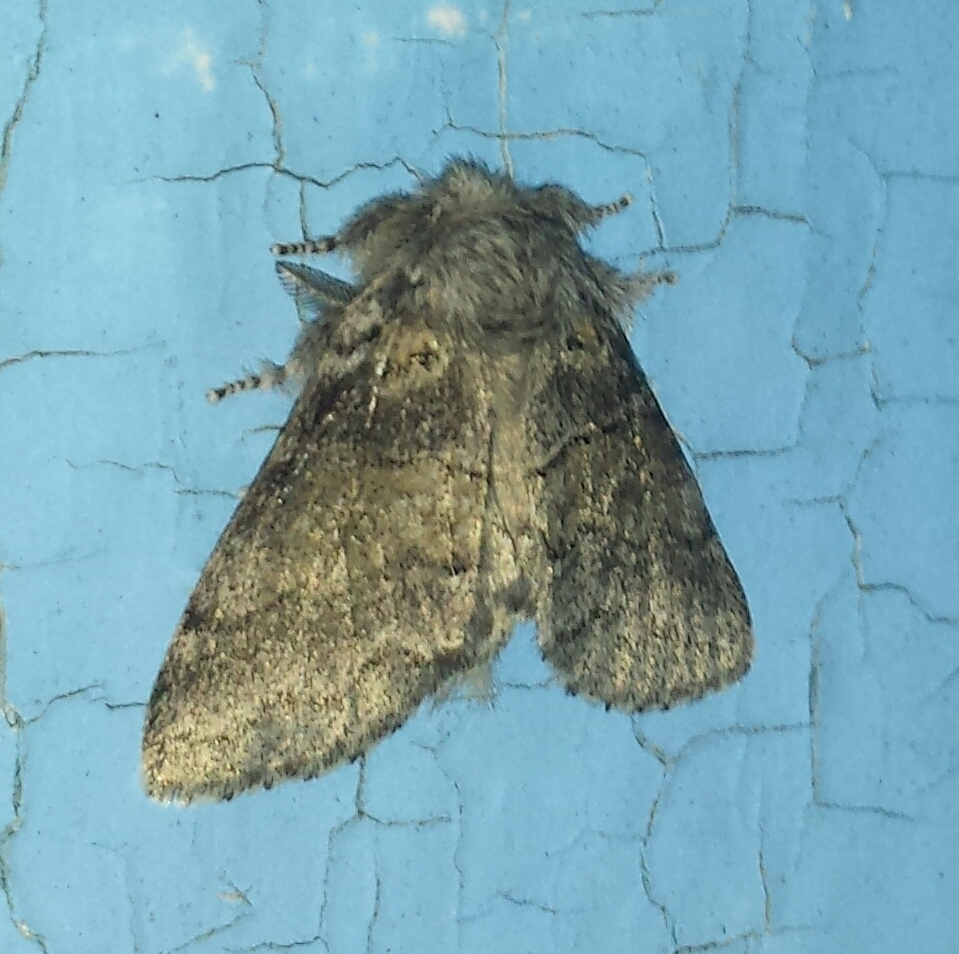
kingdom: Animalia
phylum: Arthropoda
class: Insecta
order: Lepidoptera
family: Notodontidae
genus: Gluphisia
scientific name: Gluphisia septentrionis
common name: Common gluphisia
